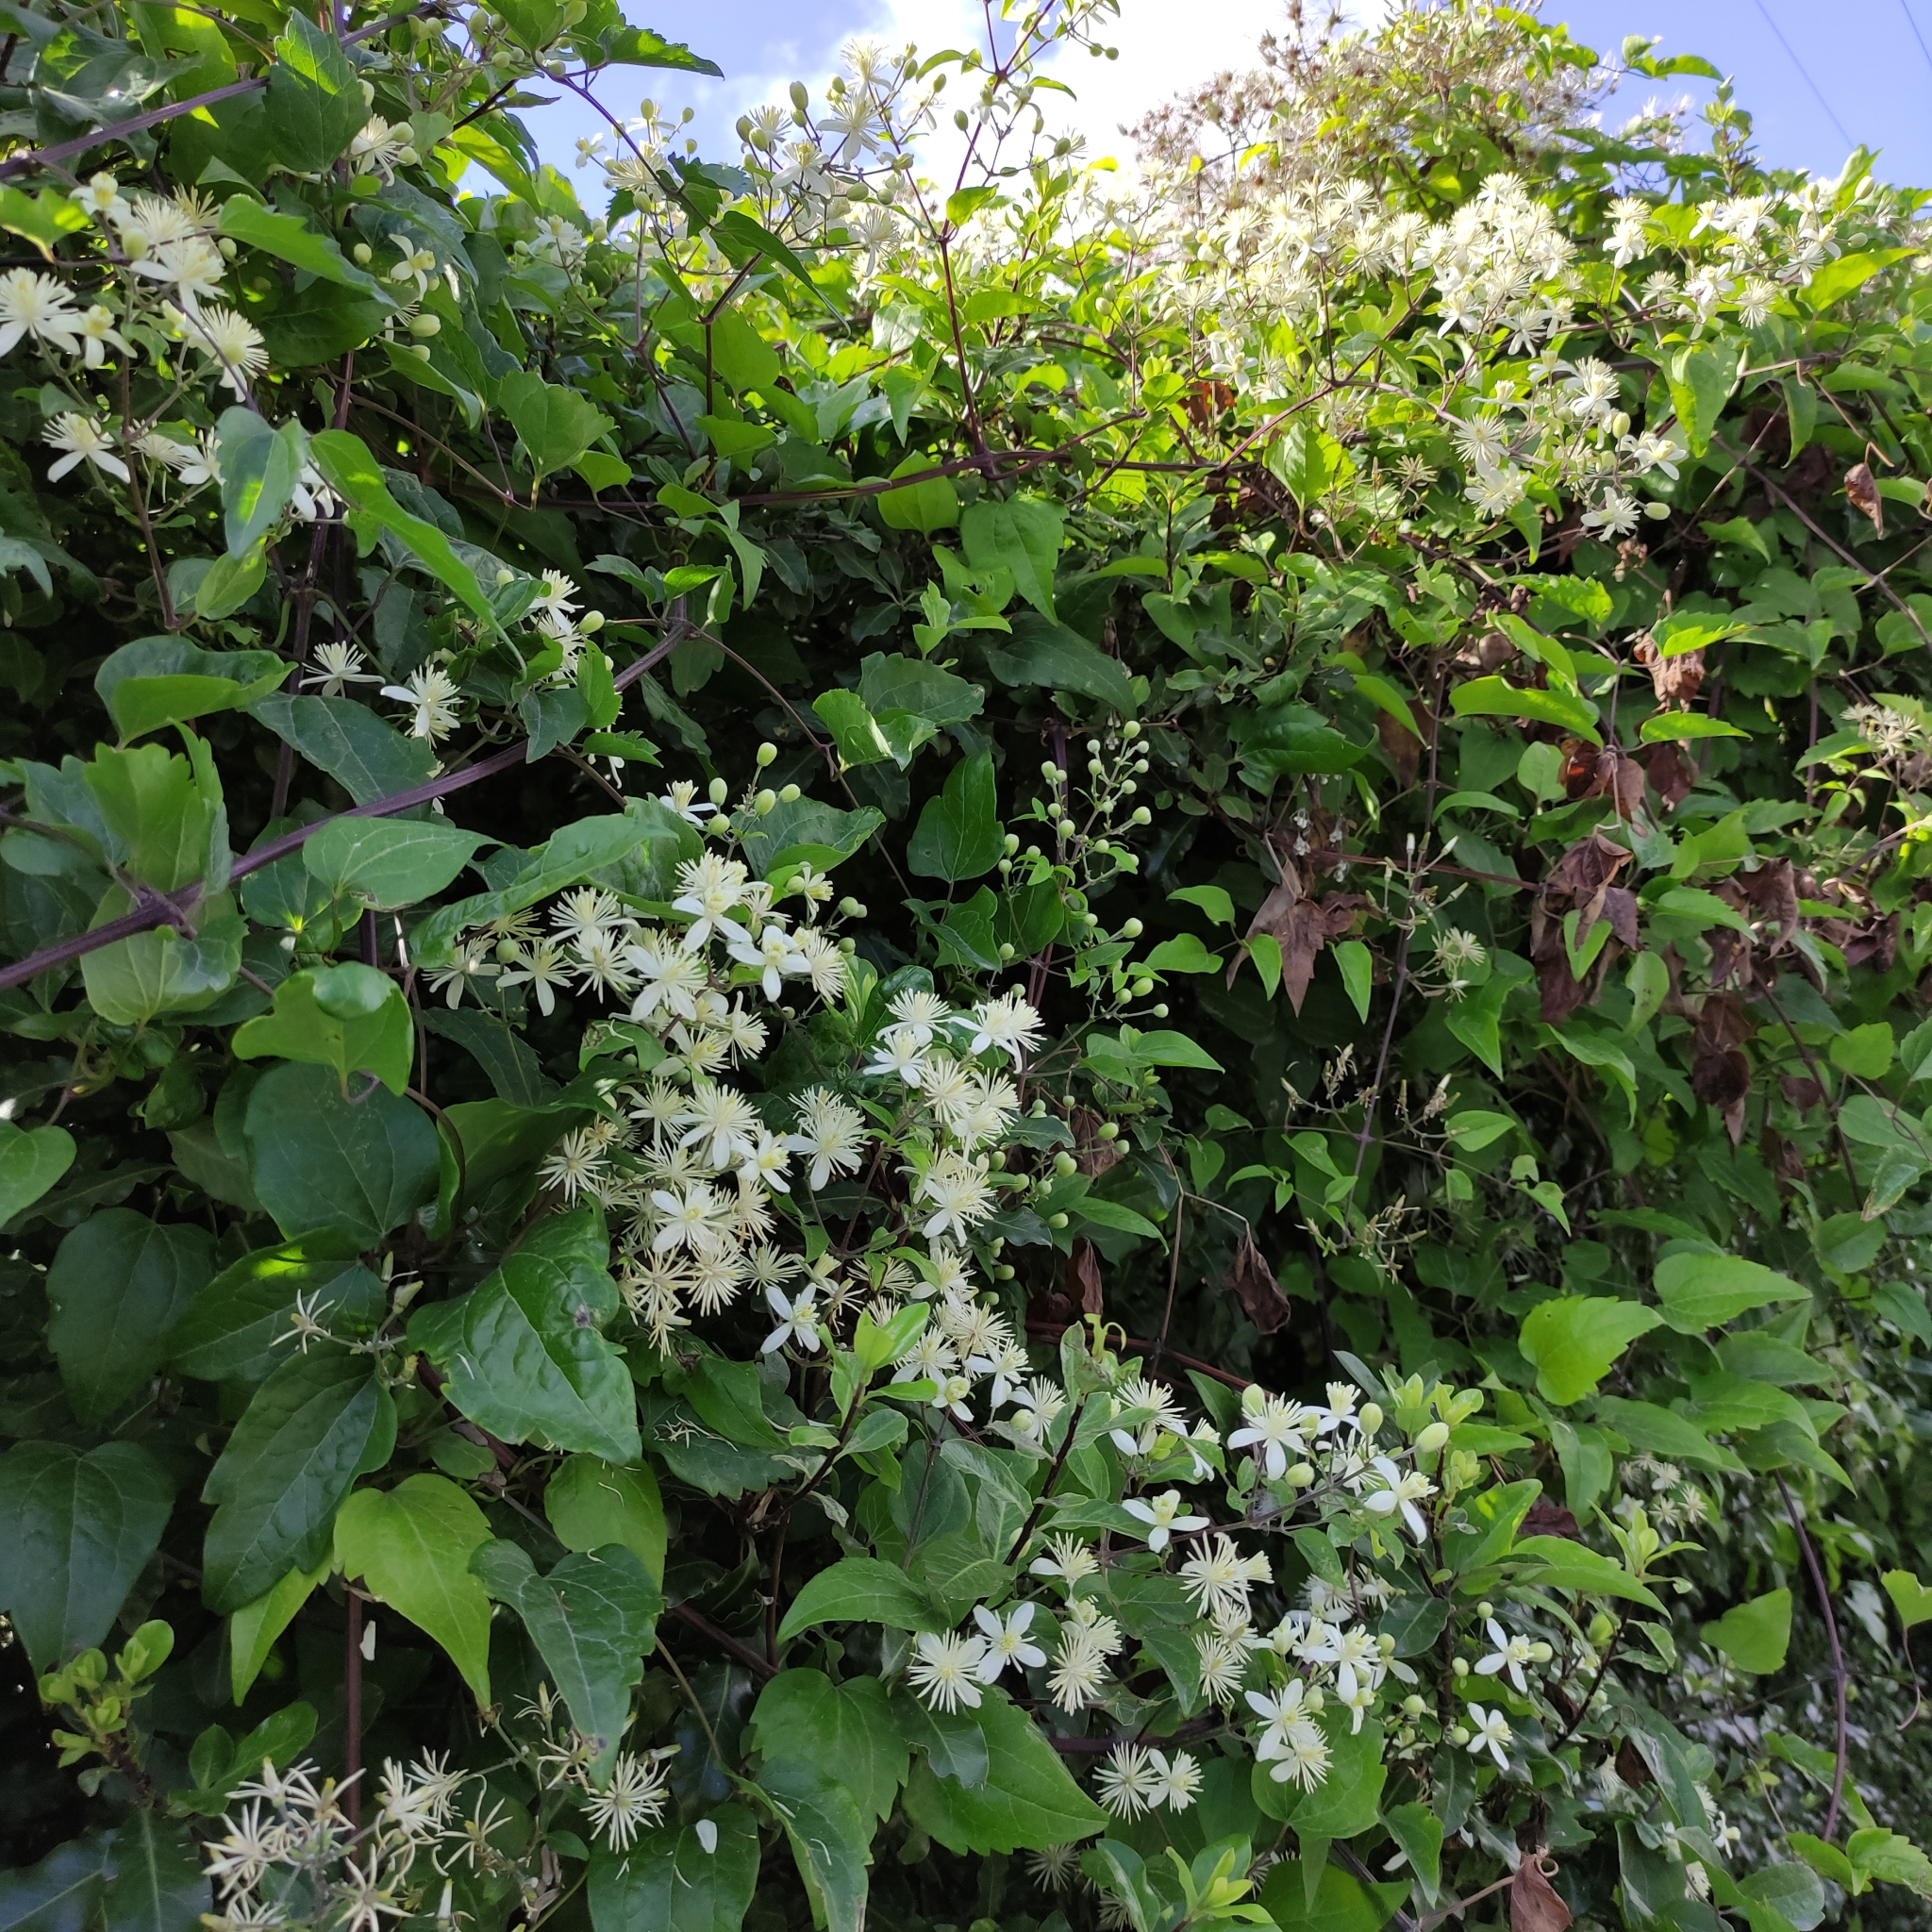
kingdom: Plantae
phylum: Tracheophyta
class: Magnoliopsida
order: Ranunculales
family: Ranunculaceae
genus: Clematis
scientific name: Clematis vitalba
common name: Evergreen clematis
